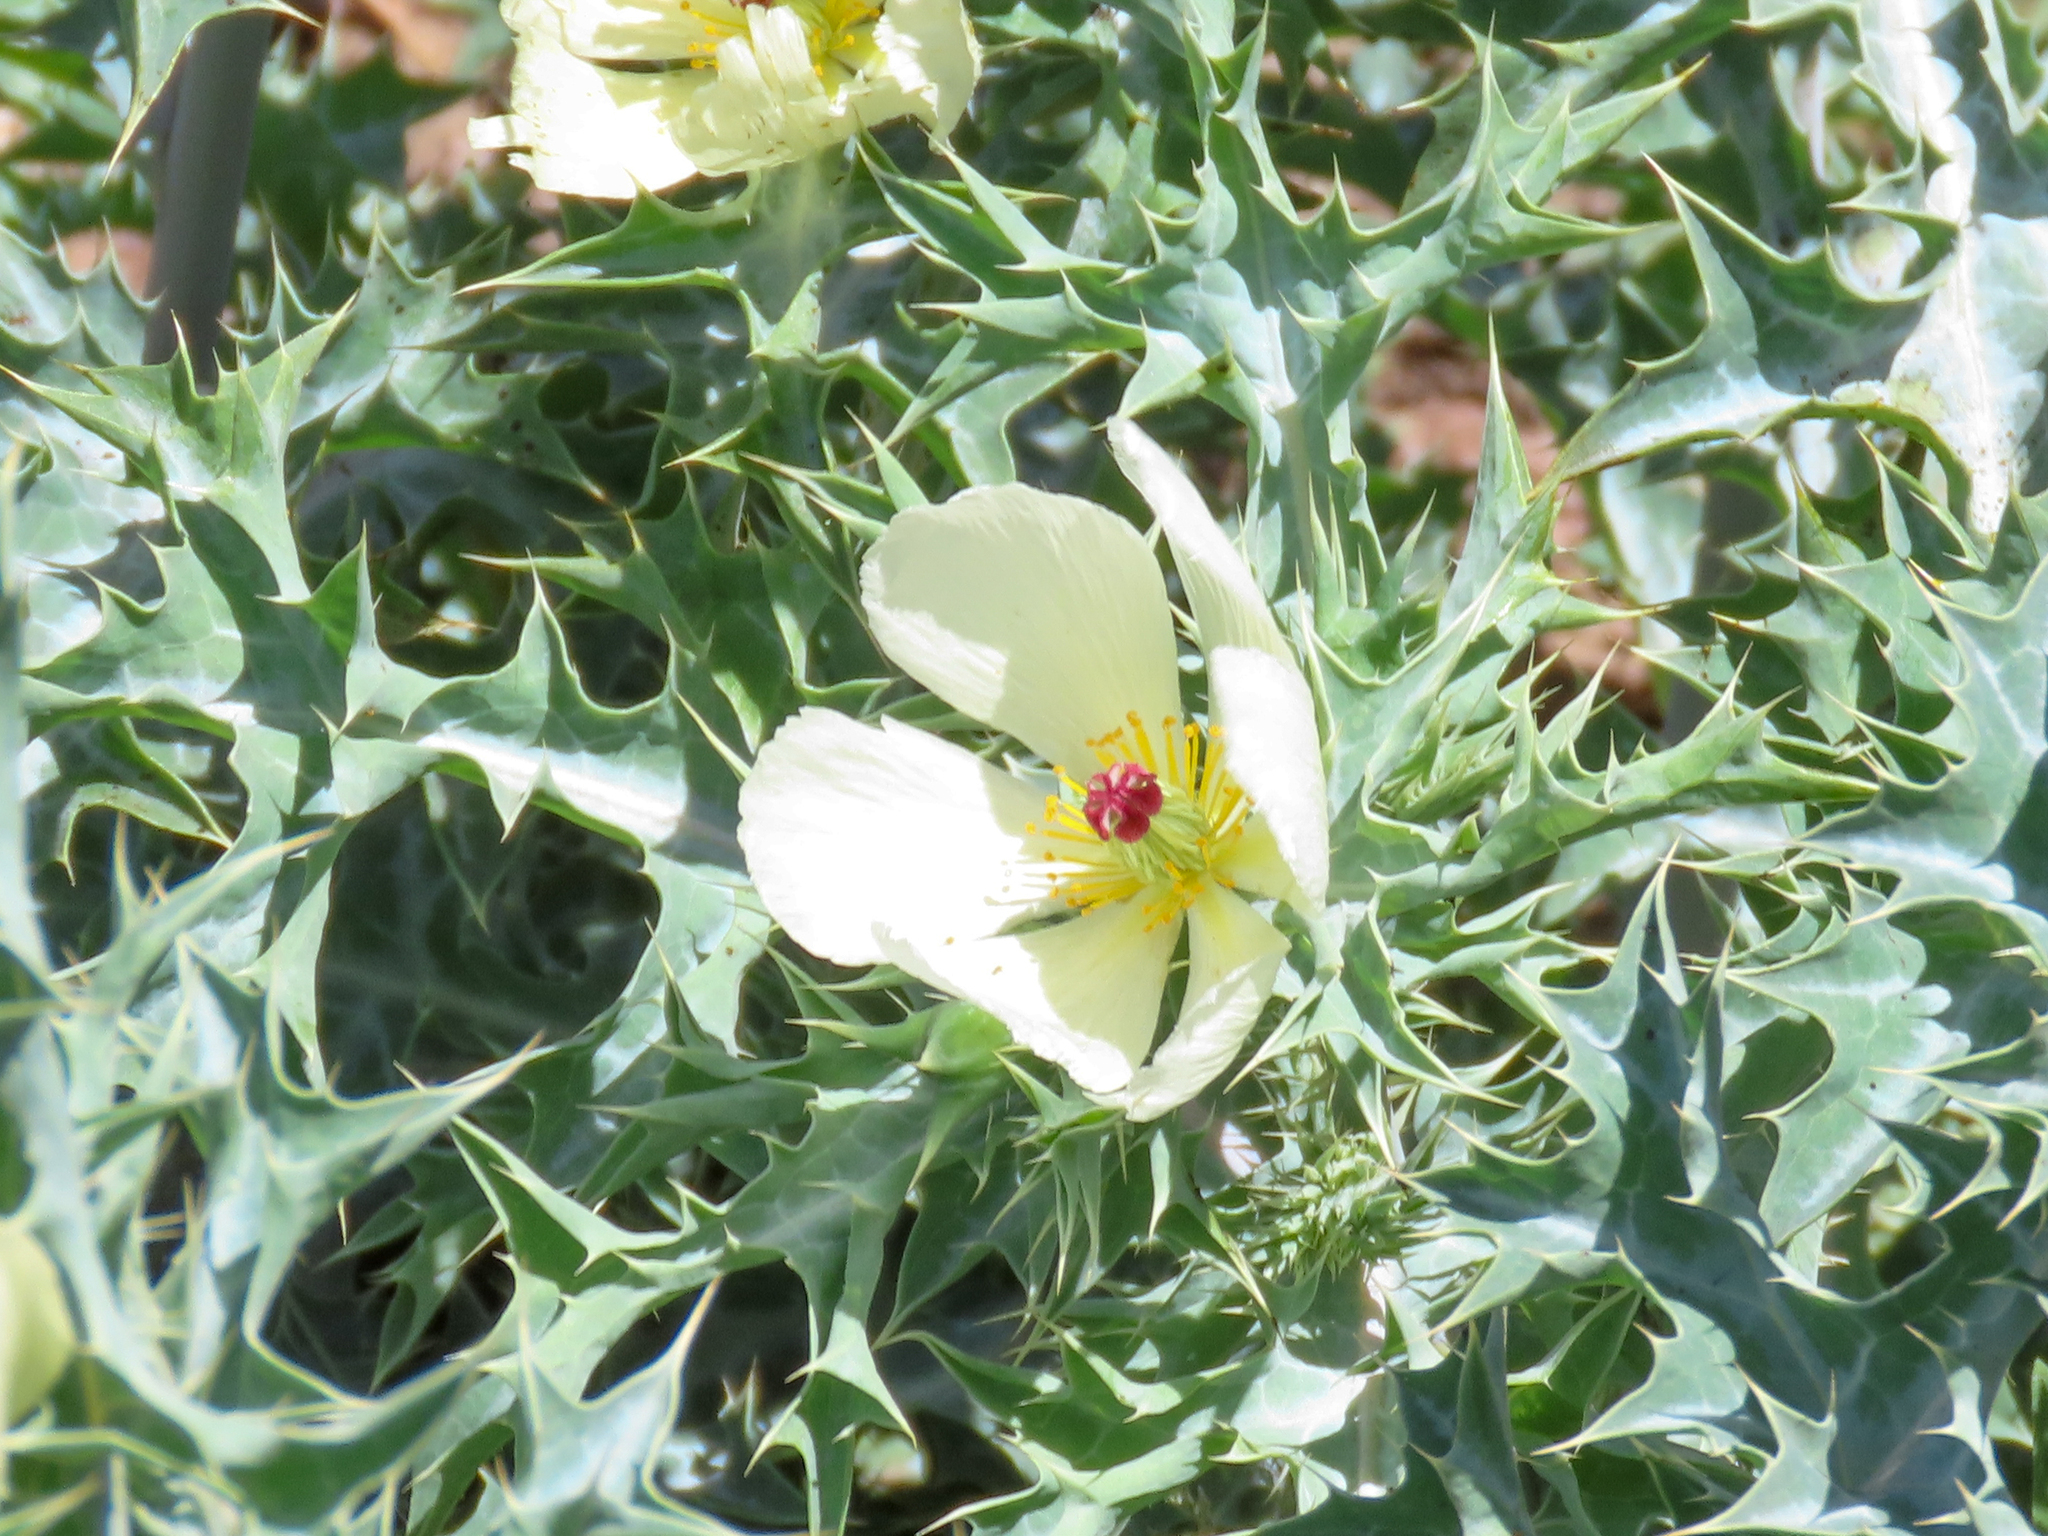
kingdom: Plantae
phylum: Tracheophyta
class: Magnoliopsida
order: Ranunculales
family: Papaveraceae
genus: Argemone
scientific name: Argemone ochroleuca
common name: White-flower mexican-poppy
